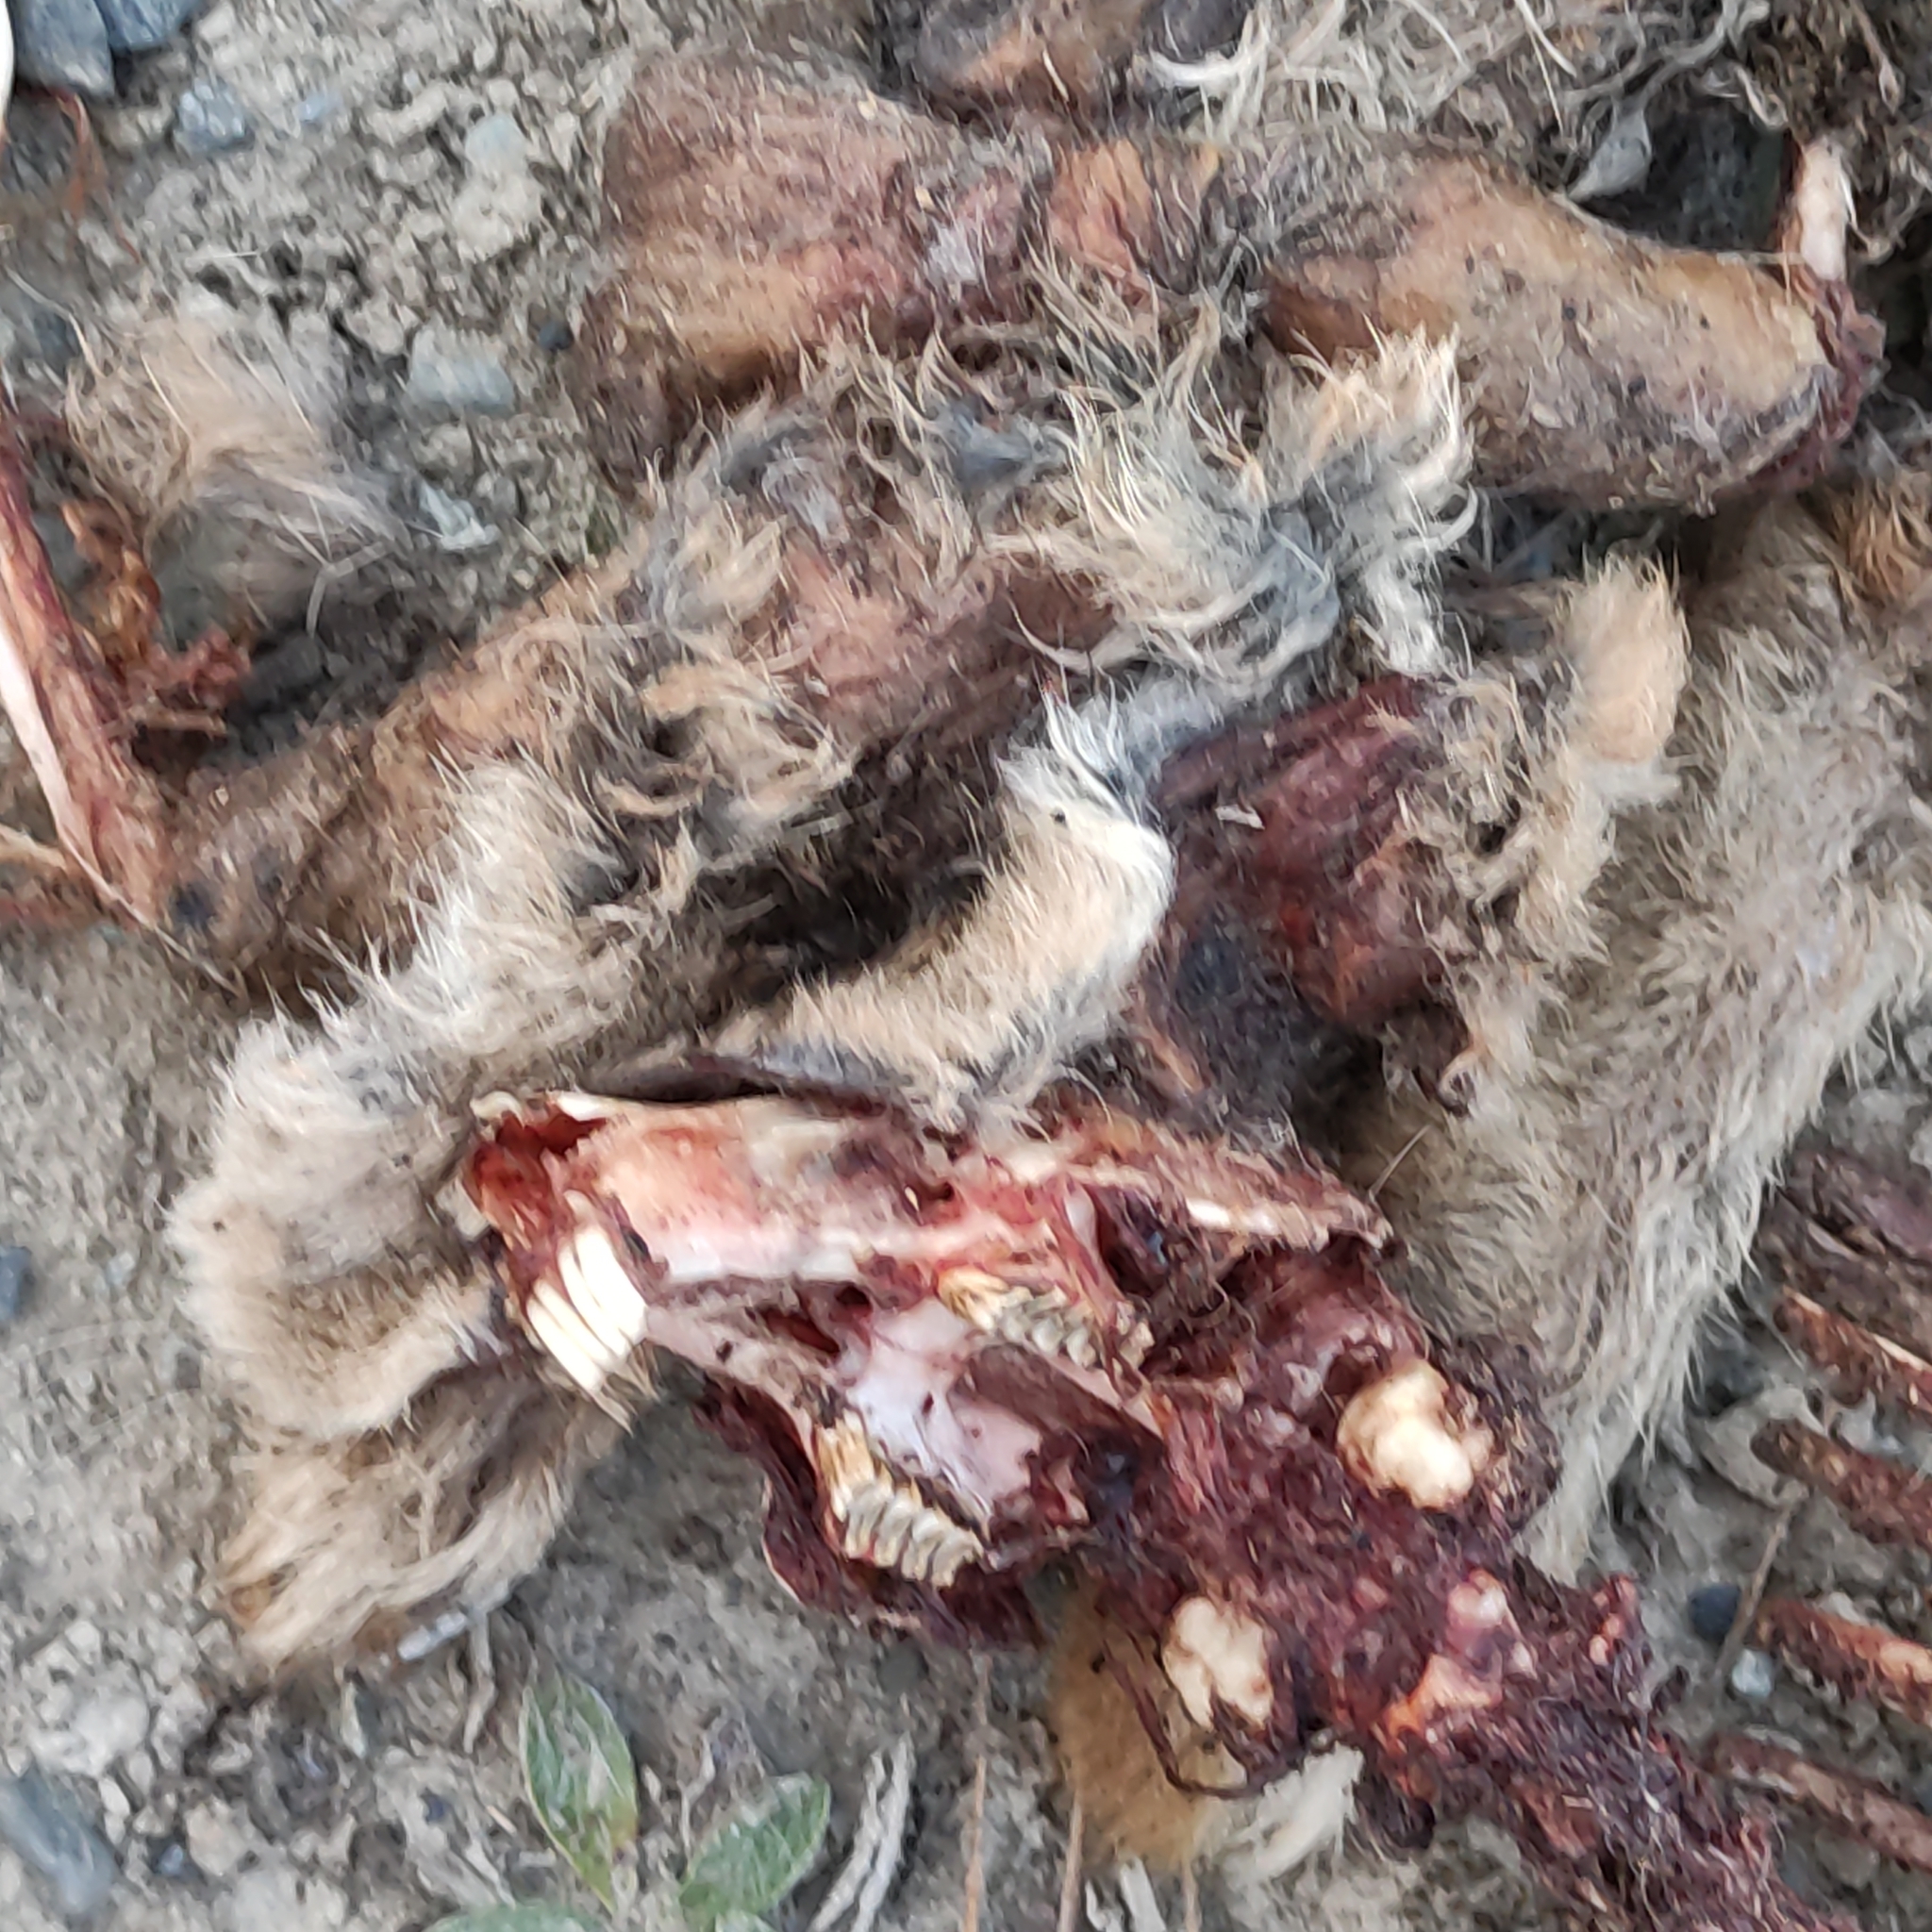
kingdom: Animalia
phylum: Chordata
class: Mammalia
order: Lagomorpha
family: Leporidae
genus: Lepus
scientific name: Lepus europaeus
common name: European hare
